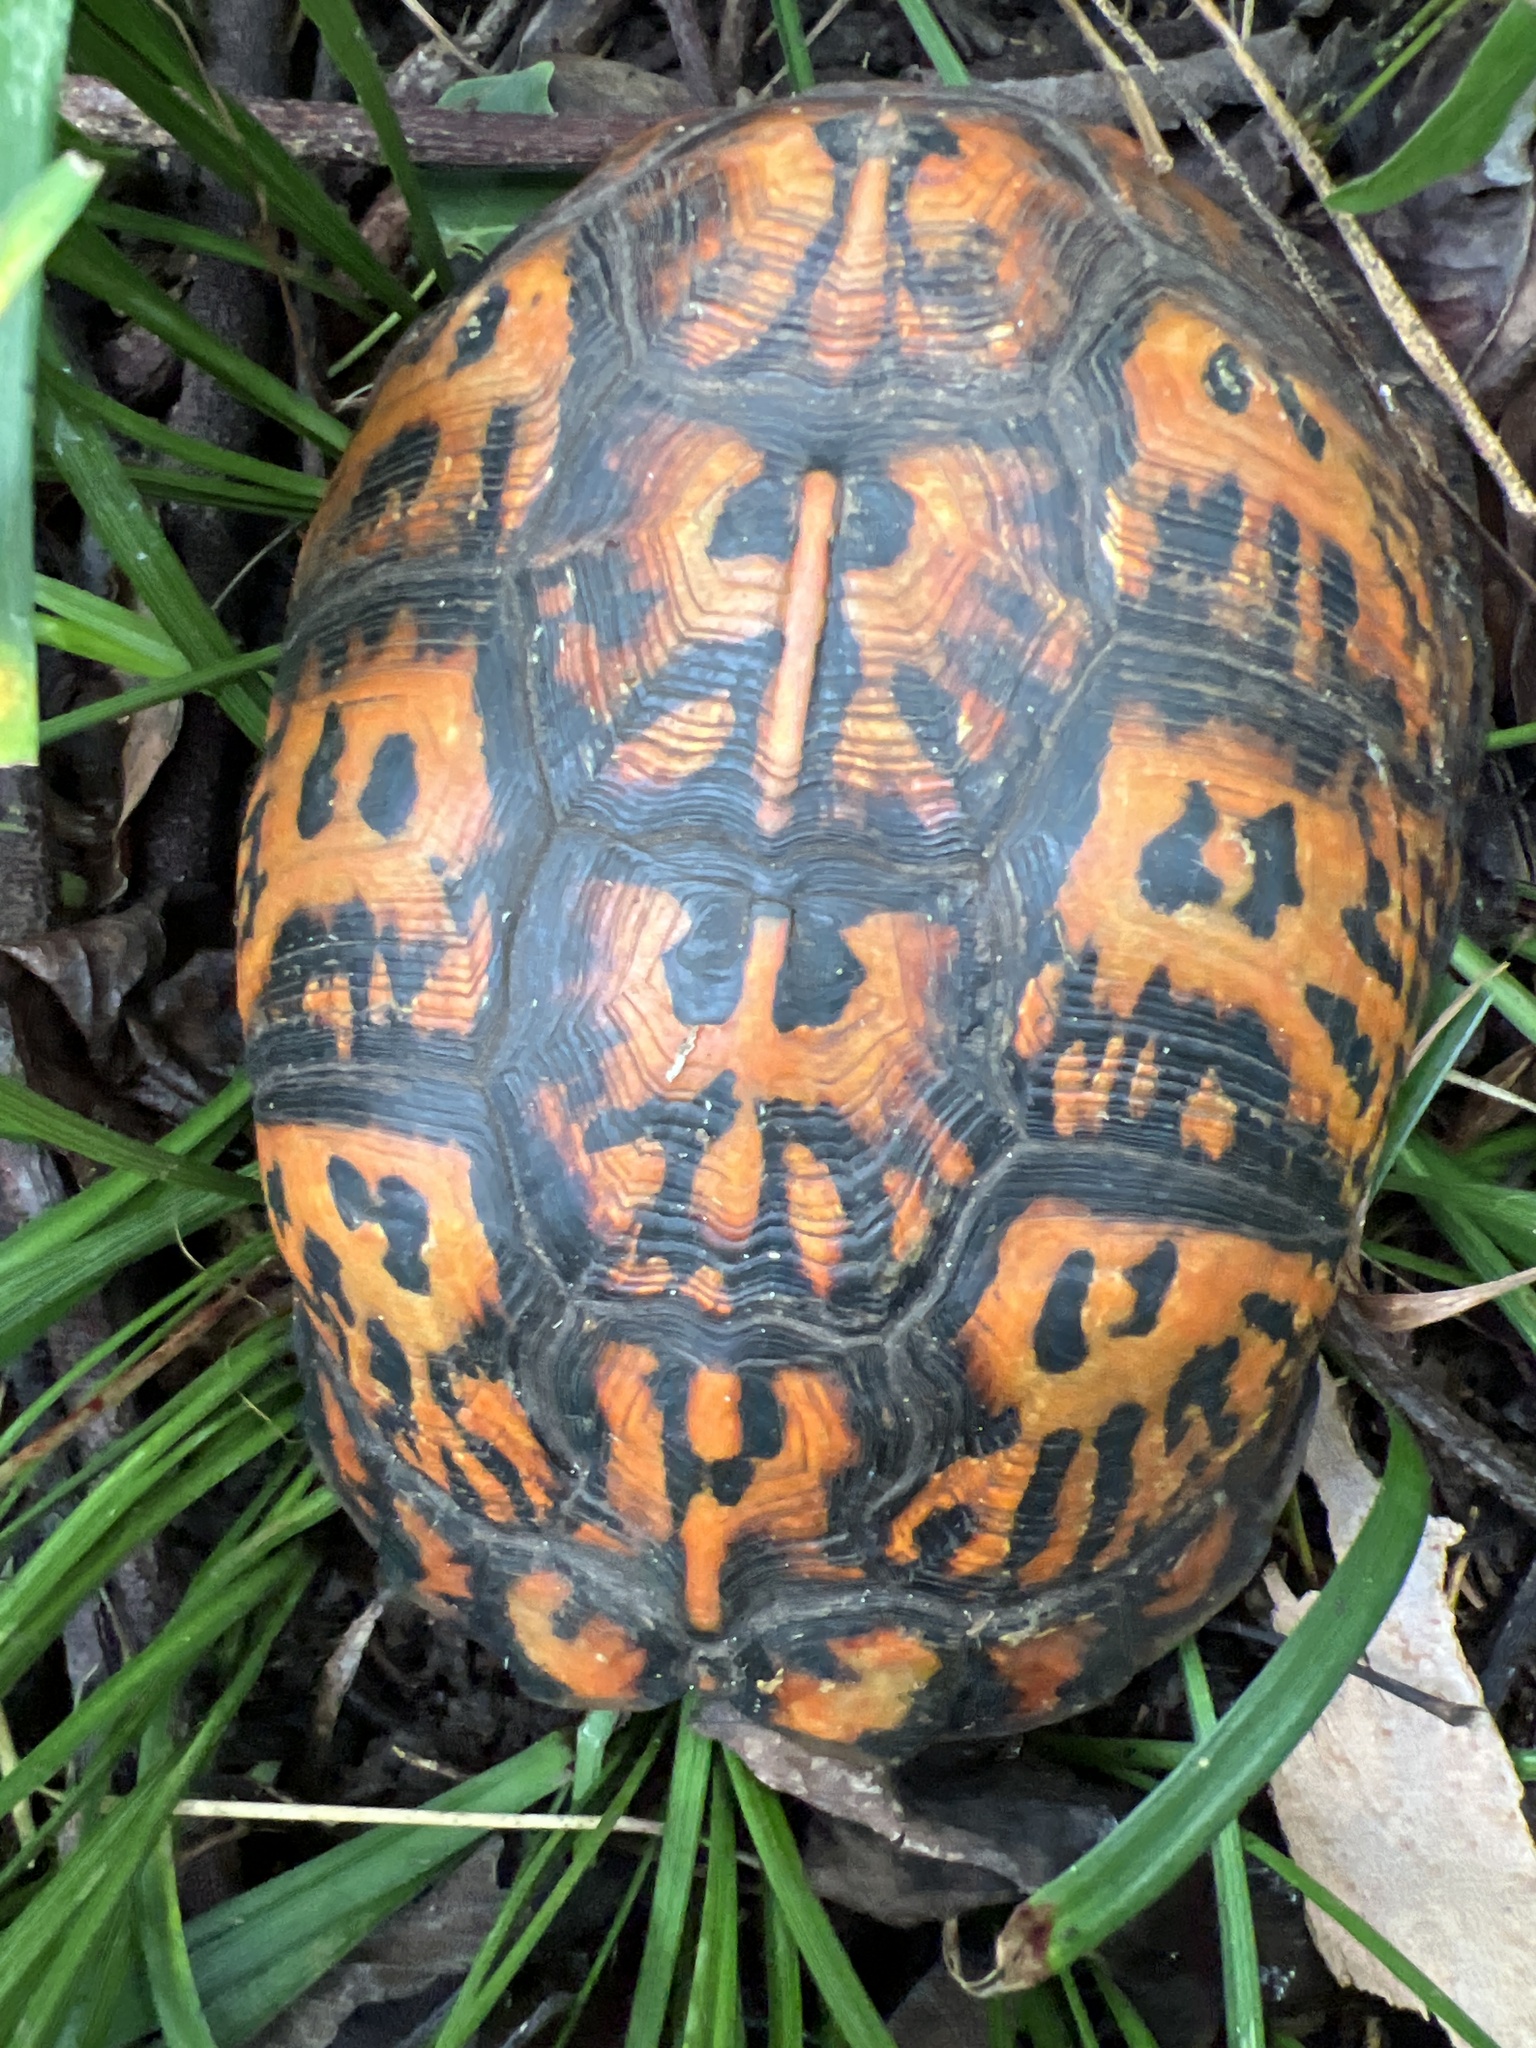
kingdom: Animalia
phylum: Chordata
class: Testudines
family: Emydidae
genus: Terrapene
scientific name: Terrapene carolina
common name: Common box turtle
